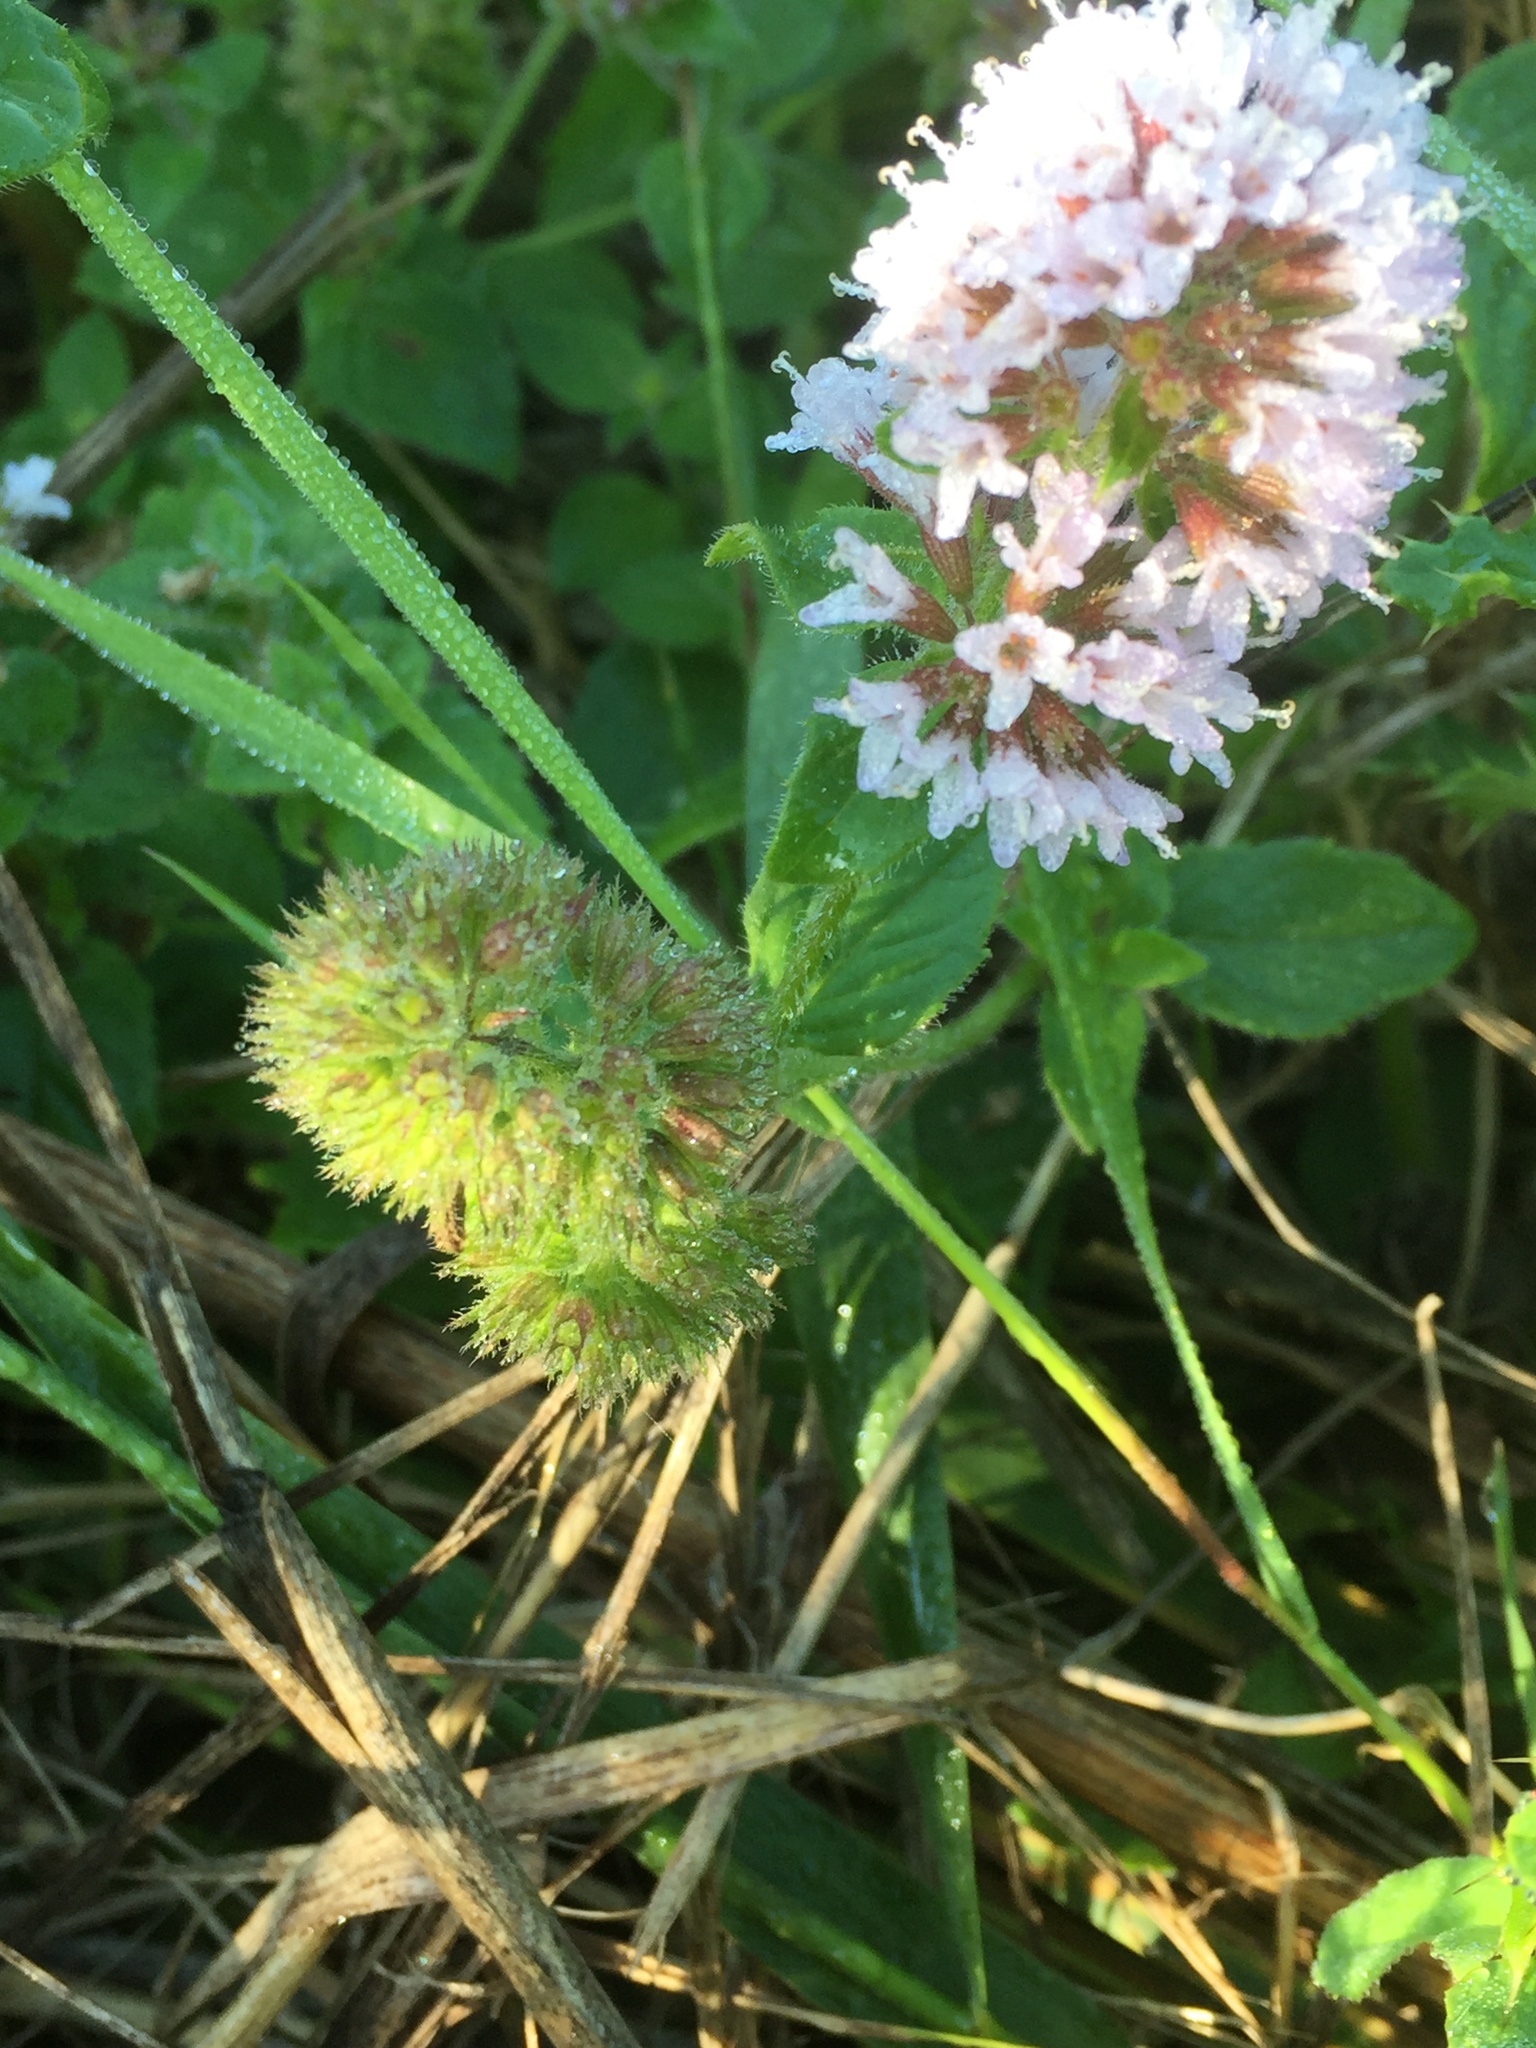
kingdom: Plantae
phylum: Tracheophyta
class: Magnoliopsida
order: Lamiales
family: Lamiaceae
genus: Mentha
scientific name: Mentha aquatica
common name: Water mint
